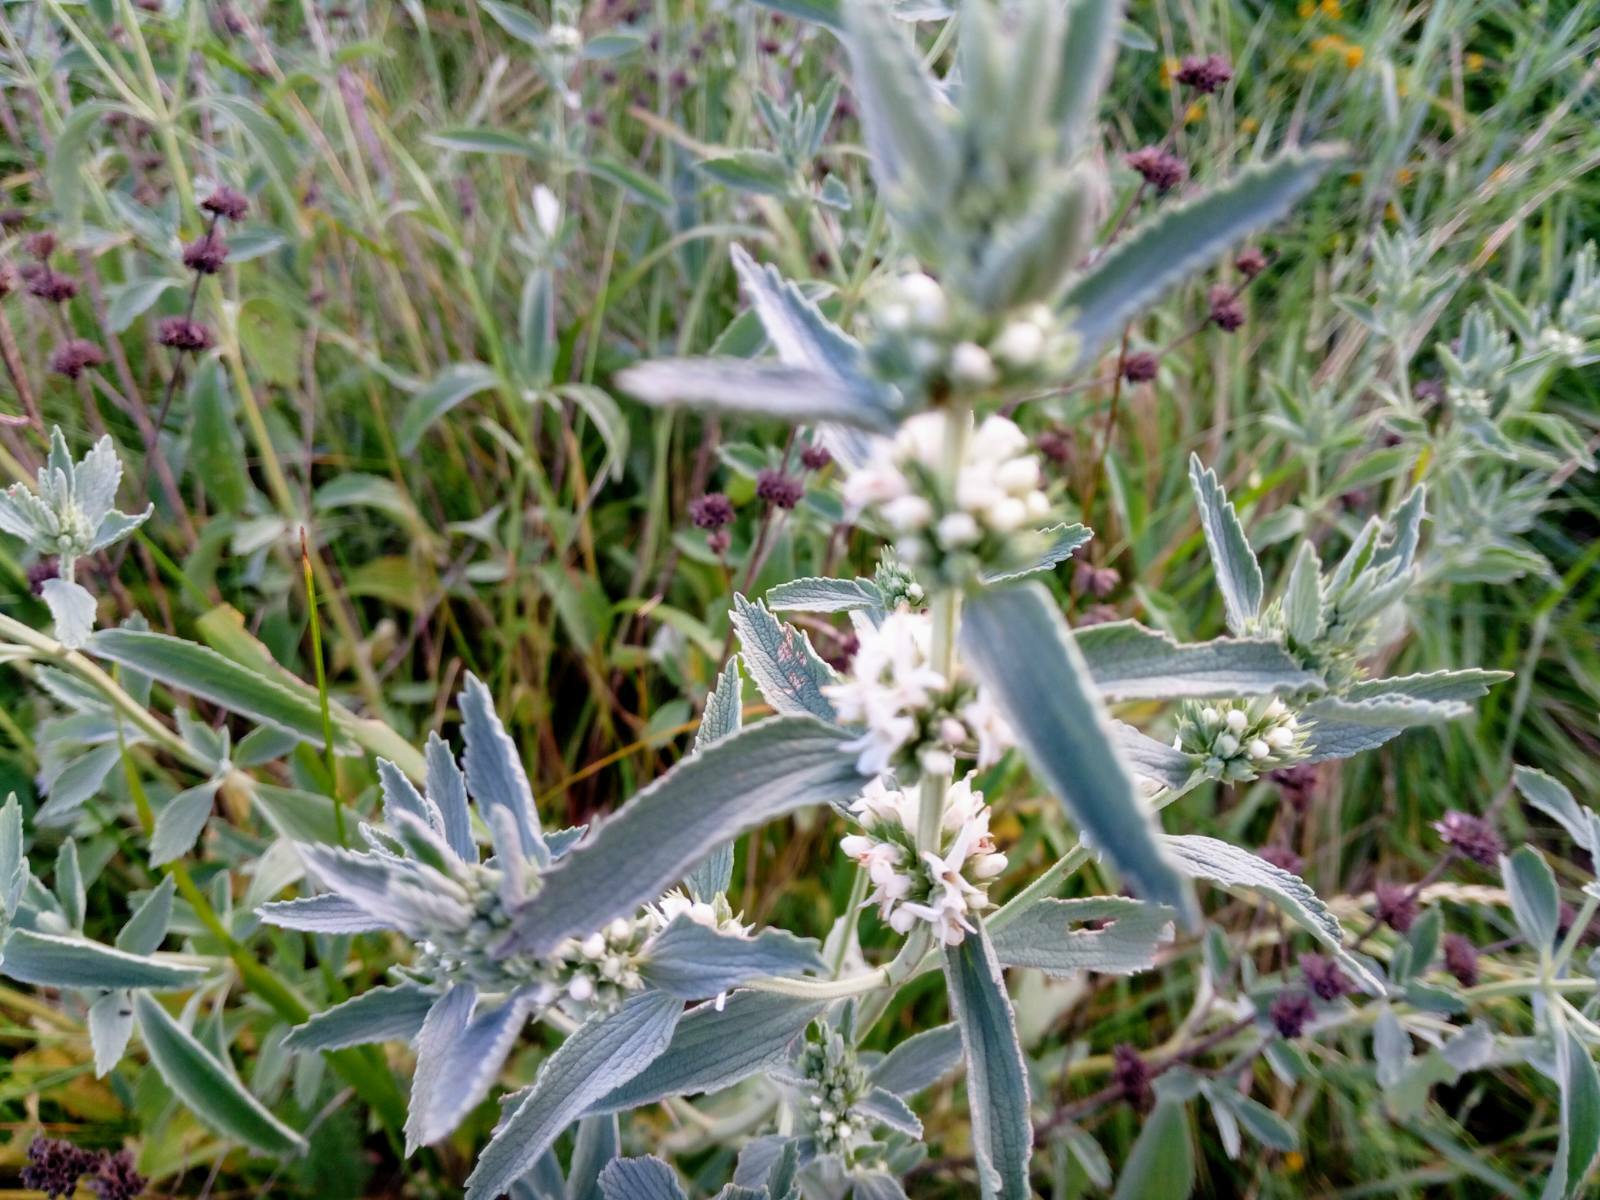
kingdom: Plantae
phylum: Tracheophyta
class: Magnoliopsida
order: Lamiales
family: Lamiaceae
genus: Marrubium
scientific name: Marrubium peregrinum
